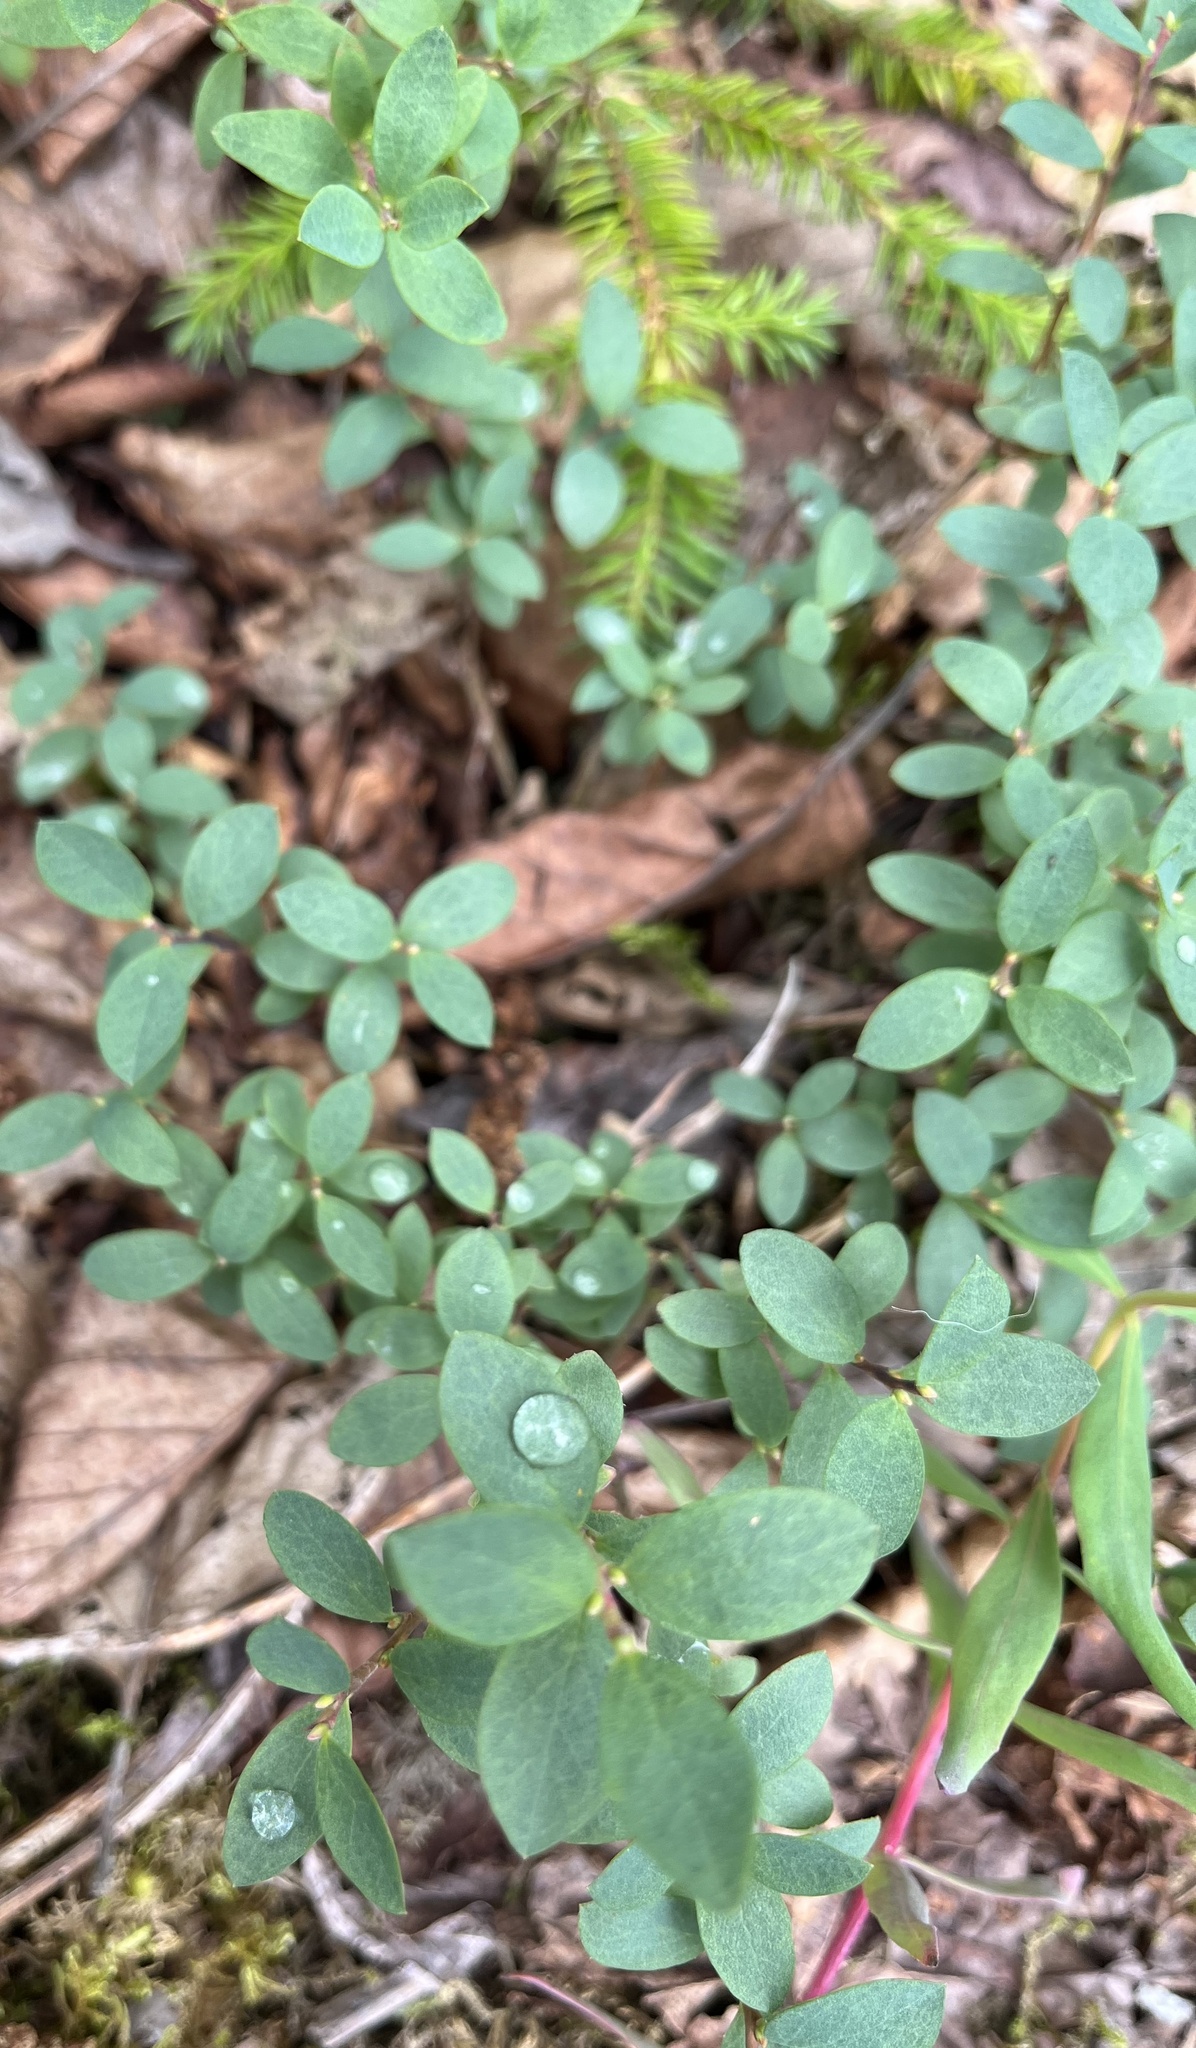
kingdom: Plantae
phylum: Tracheophyta
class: Magnoliopsida
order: Ericales
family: Ericaceae
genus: Vaccinium
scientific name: Vaccinium uliginosum
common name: Bog bilberry
